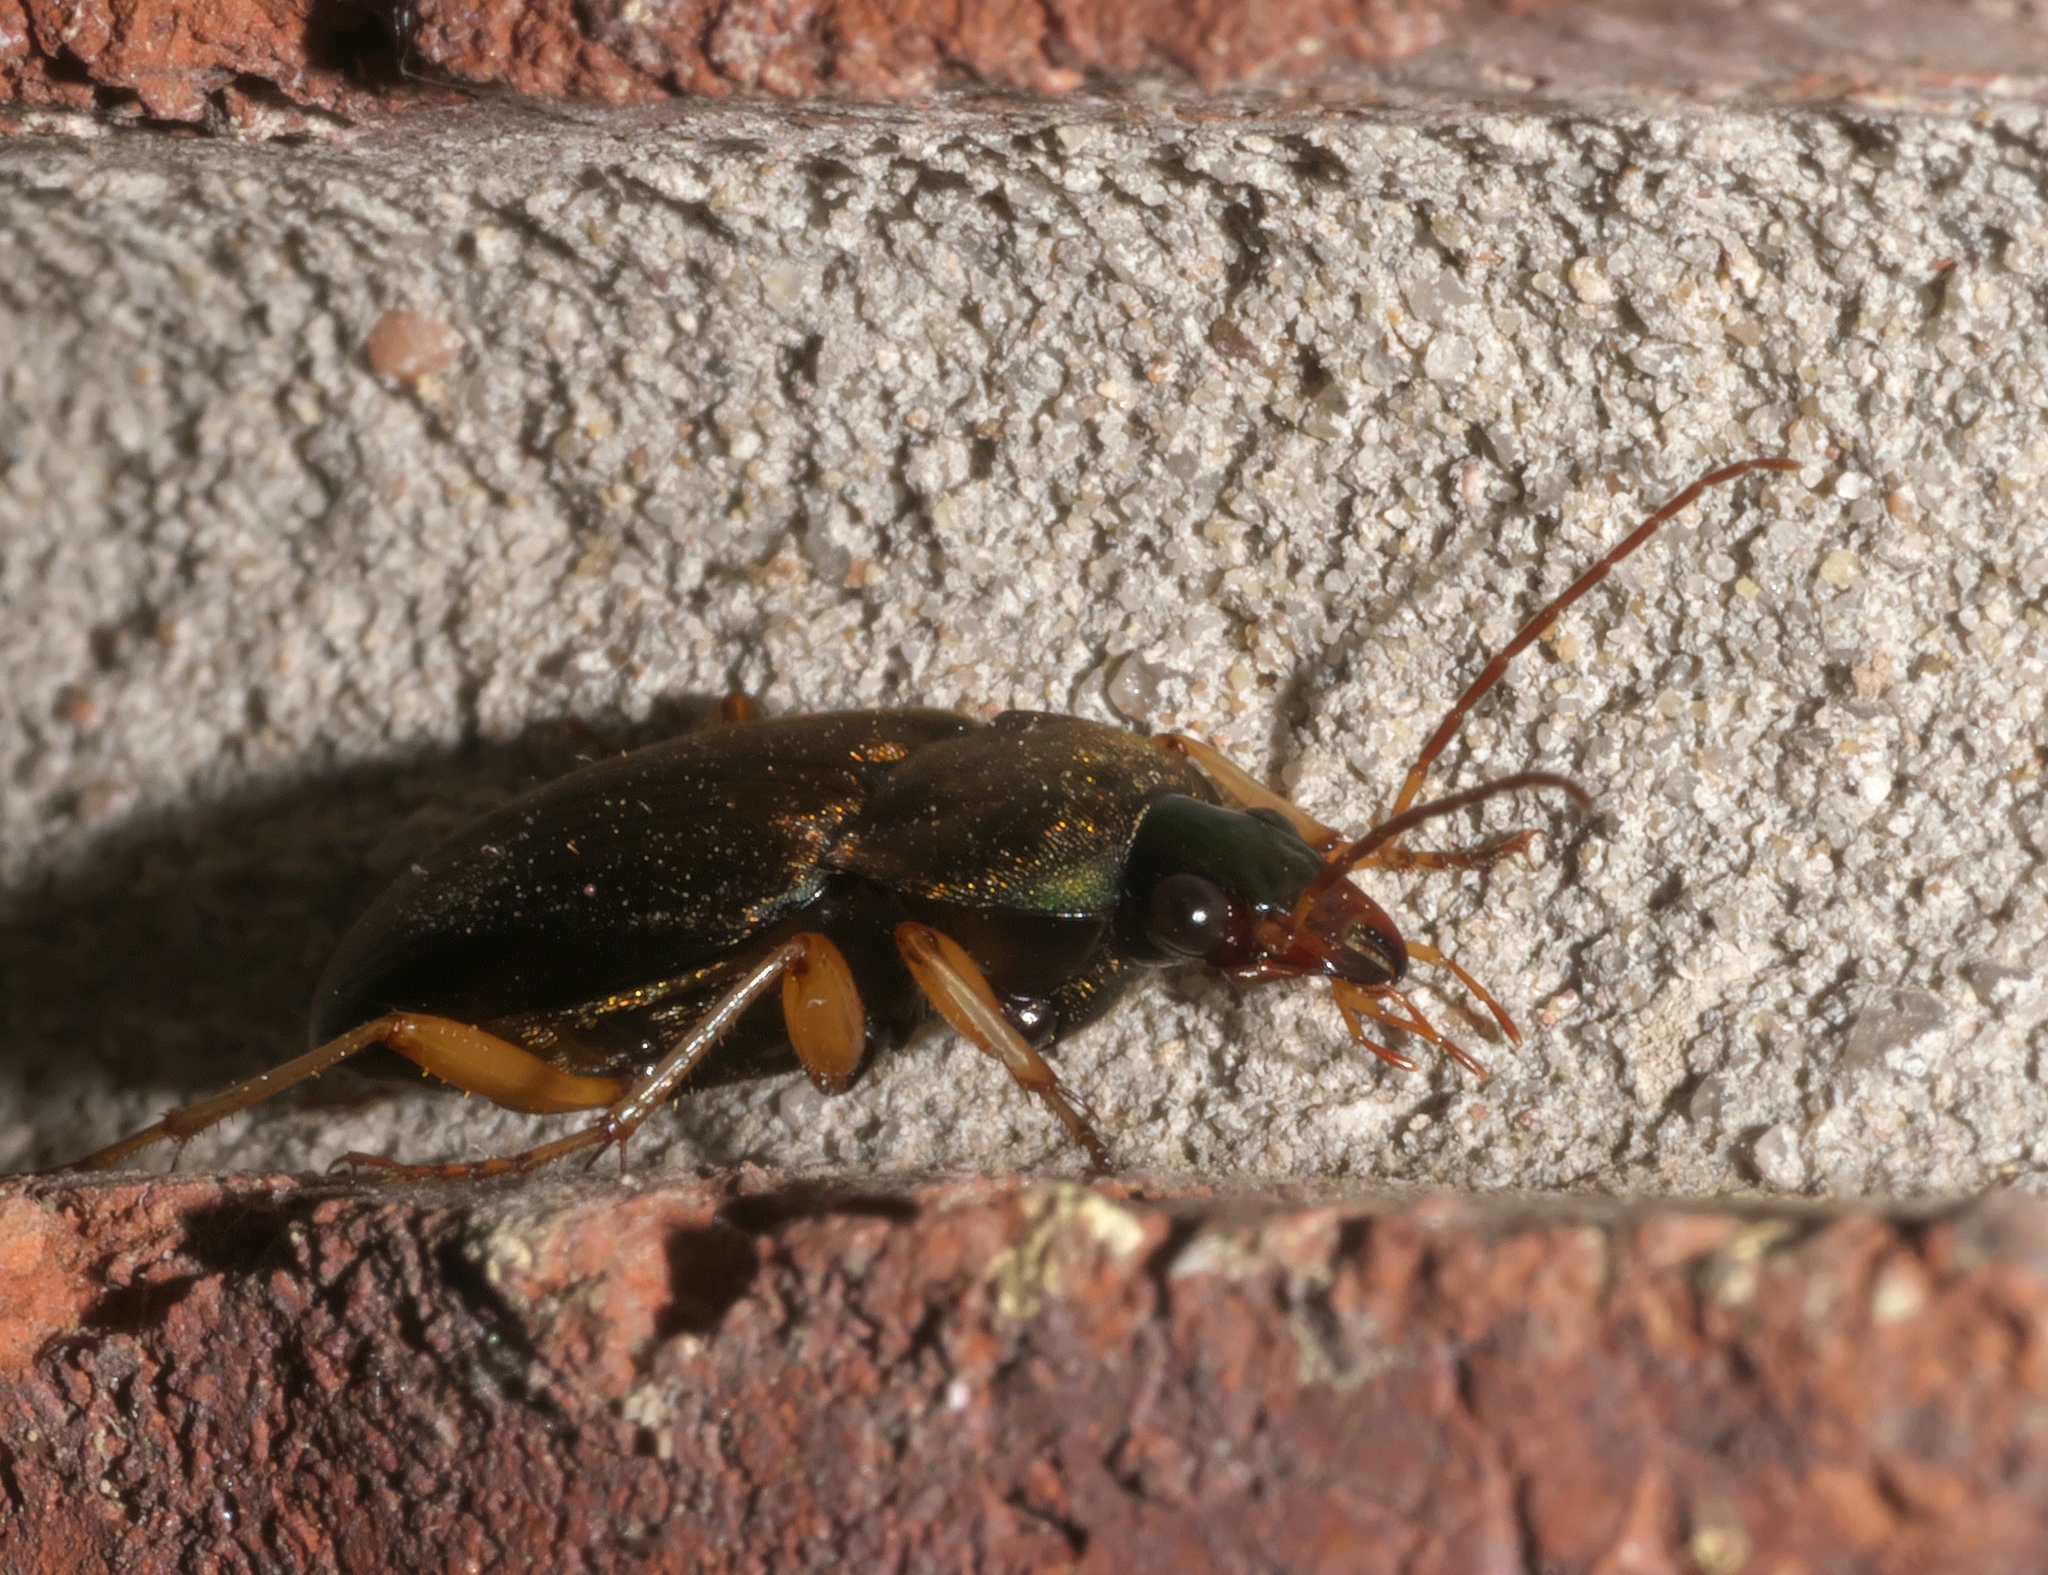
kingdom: Animalia
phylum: Arthropoda
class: Insecta
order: Coleoptera
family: Carabidae
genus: Chlaenius
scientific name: Chlaenius impunctifrons
